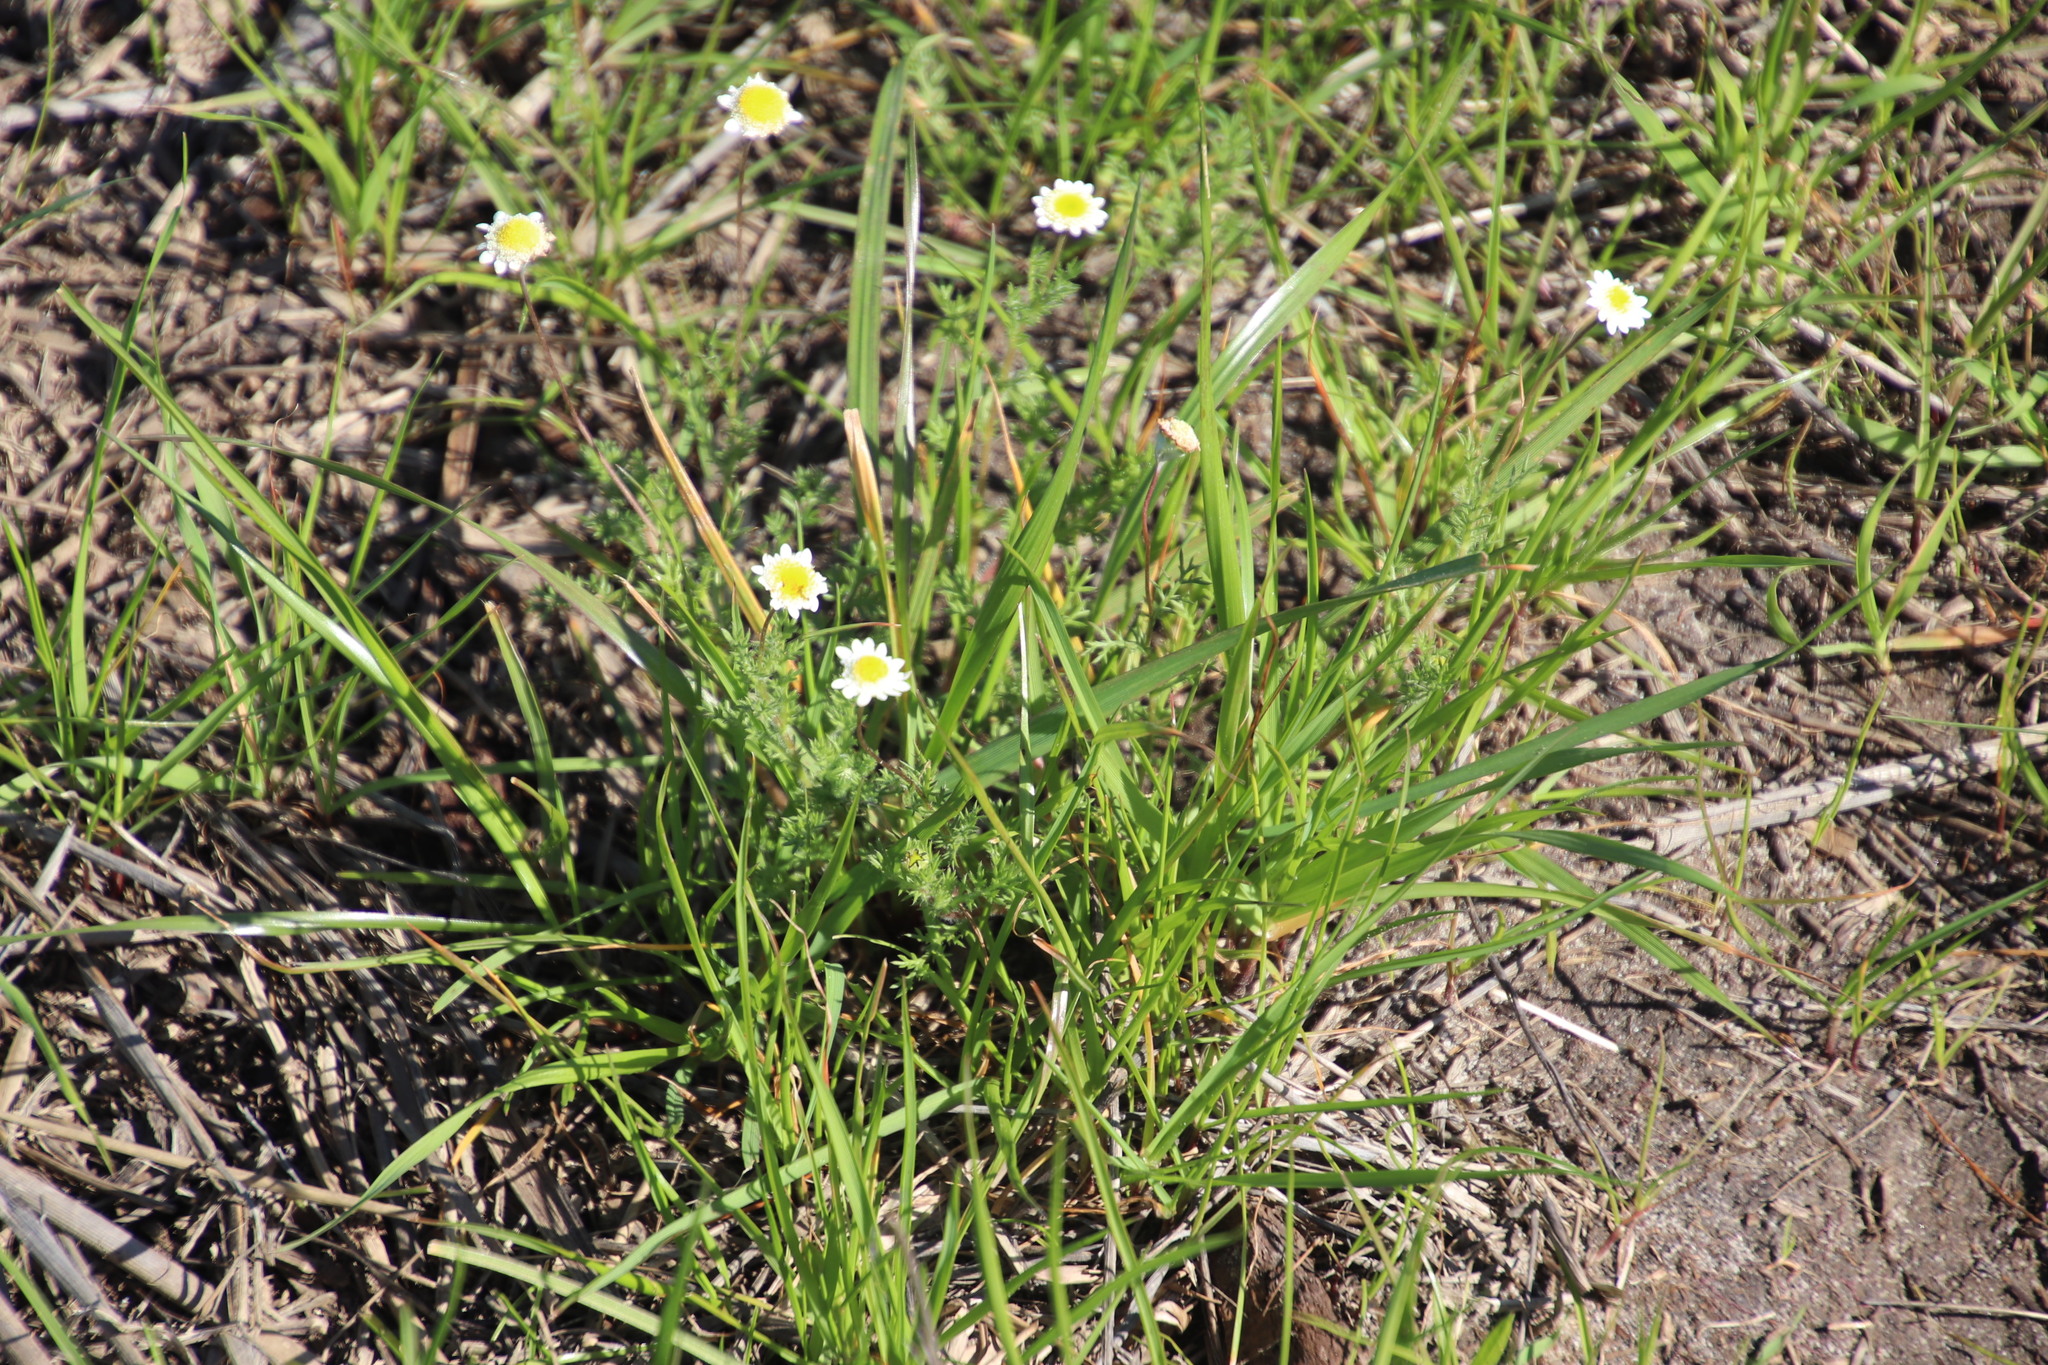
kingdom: Plantae
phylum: Tracheophyta
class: Magnoliopsida
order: Asterales
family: Asteraceae
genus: Cotula
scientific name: Cotula turbinata
